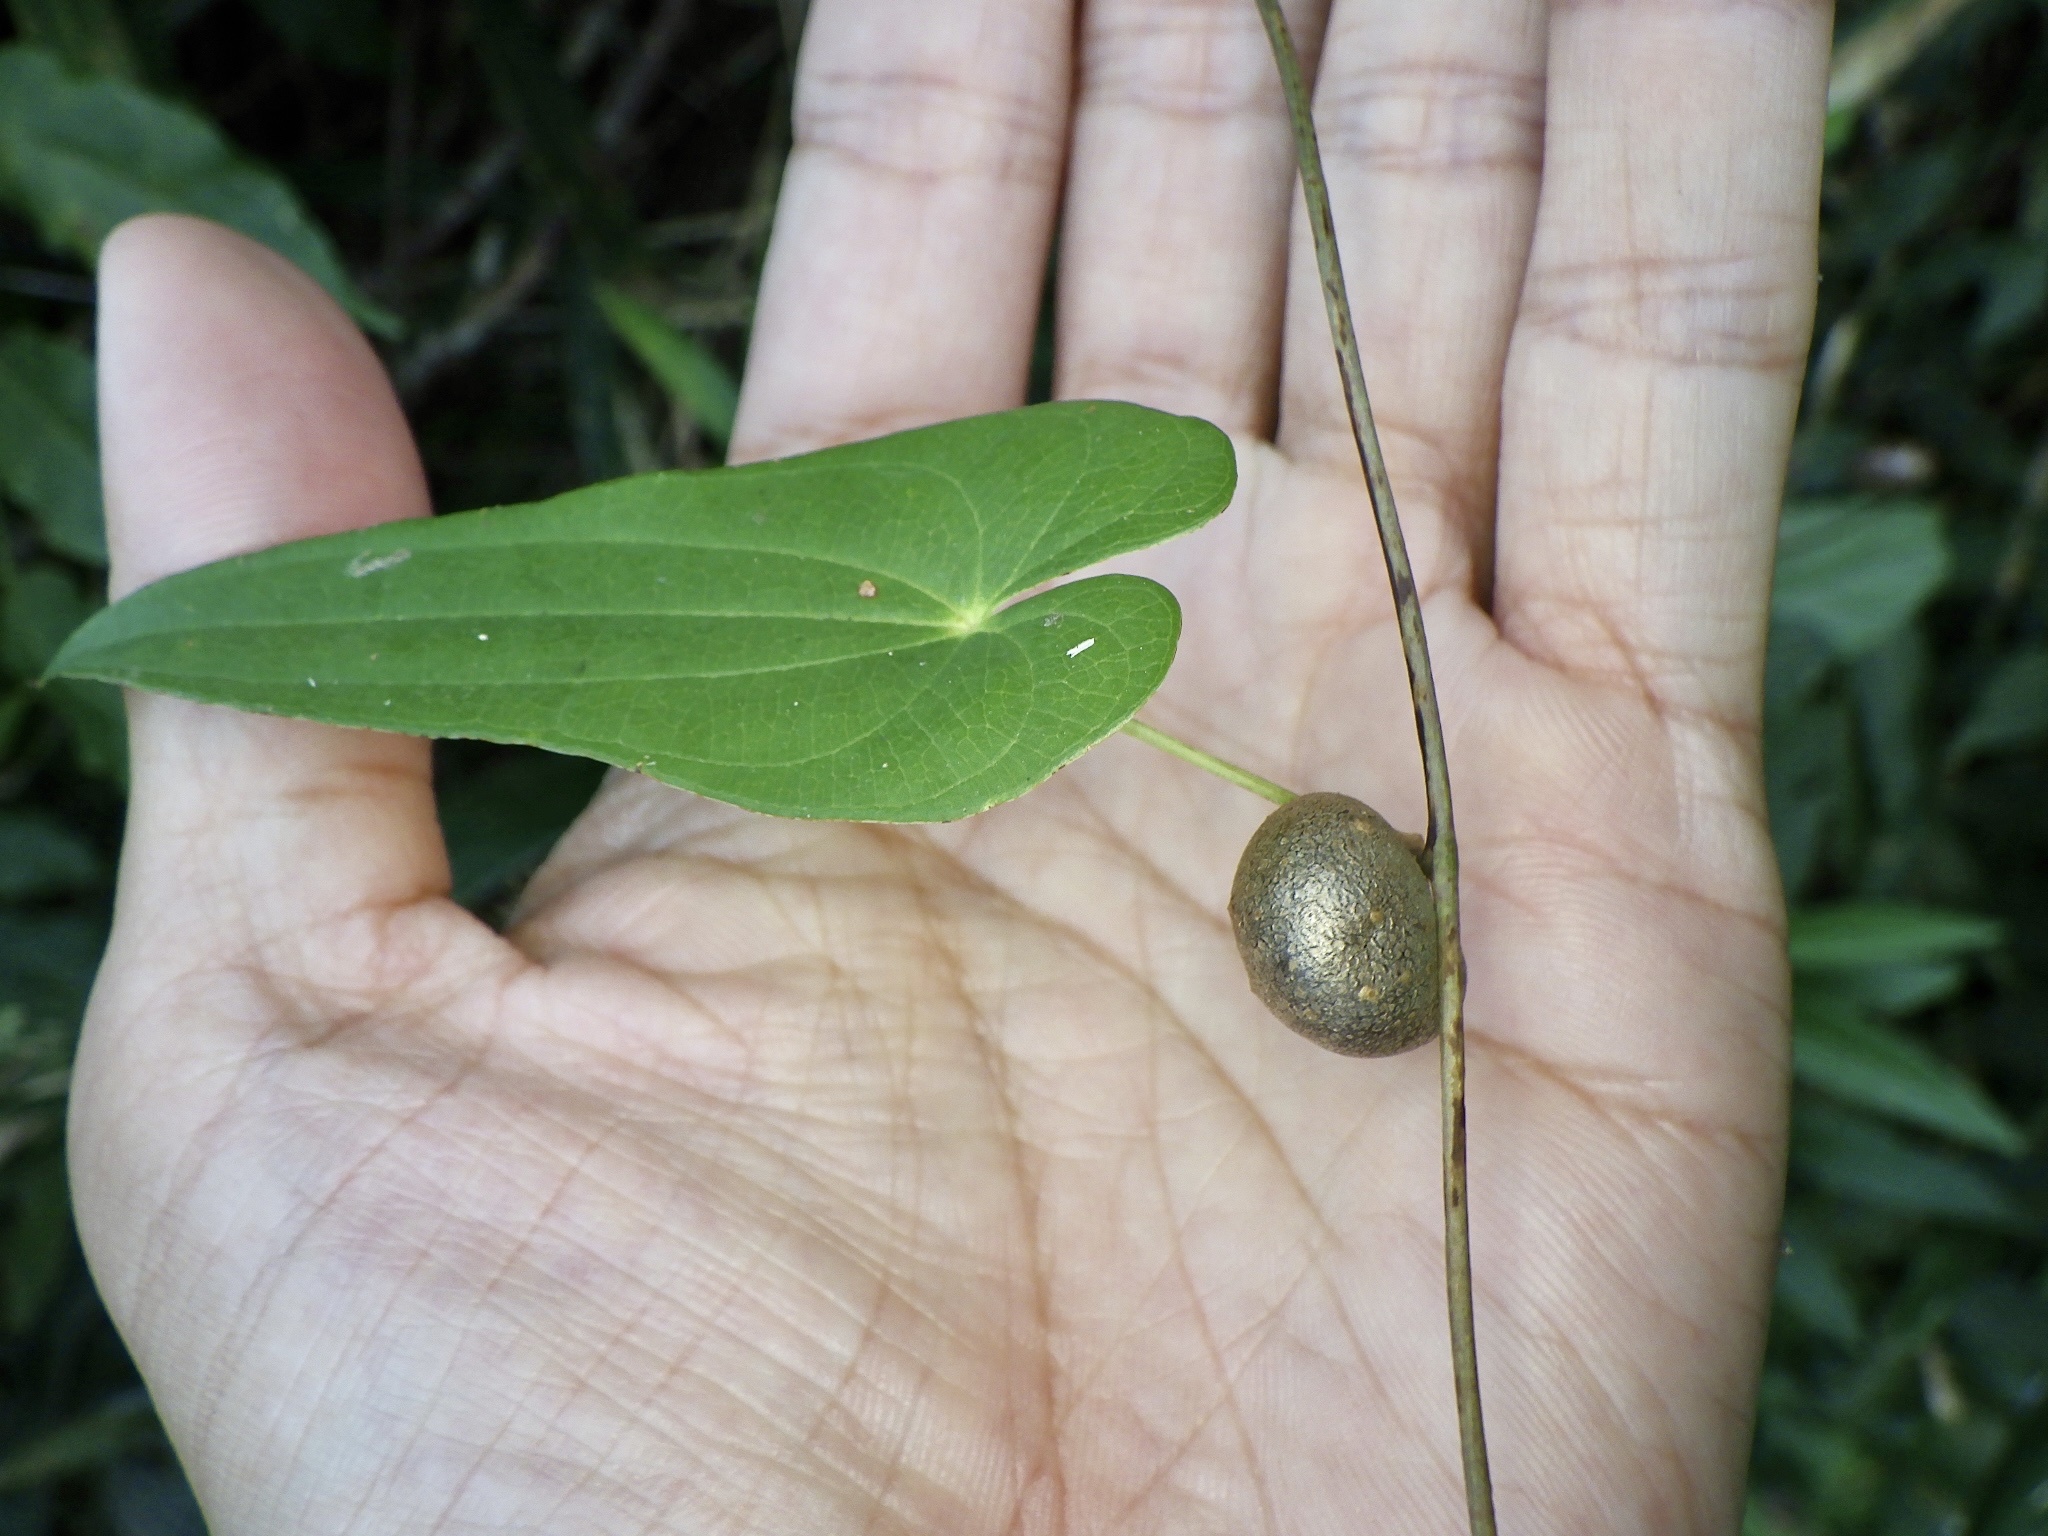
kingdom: Plantae
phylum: Tracheophyta
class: Liliopsida
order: Dioscoreales
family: Dioscoreaceae
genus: Dioscorea
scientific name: Dioscorea japonica
